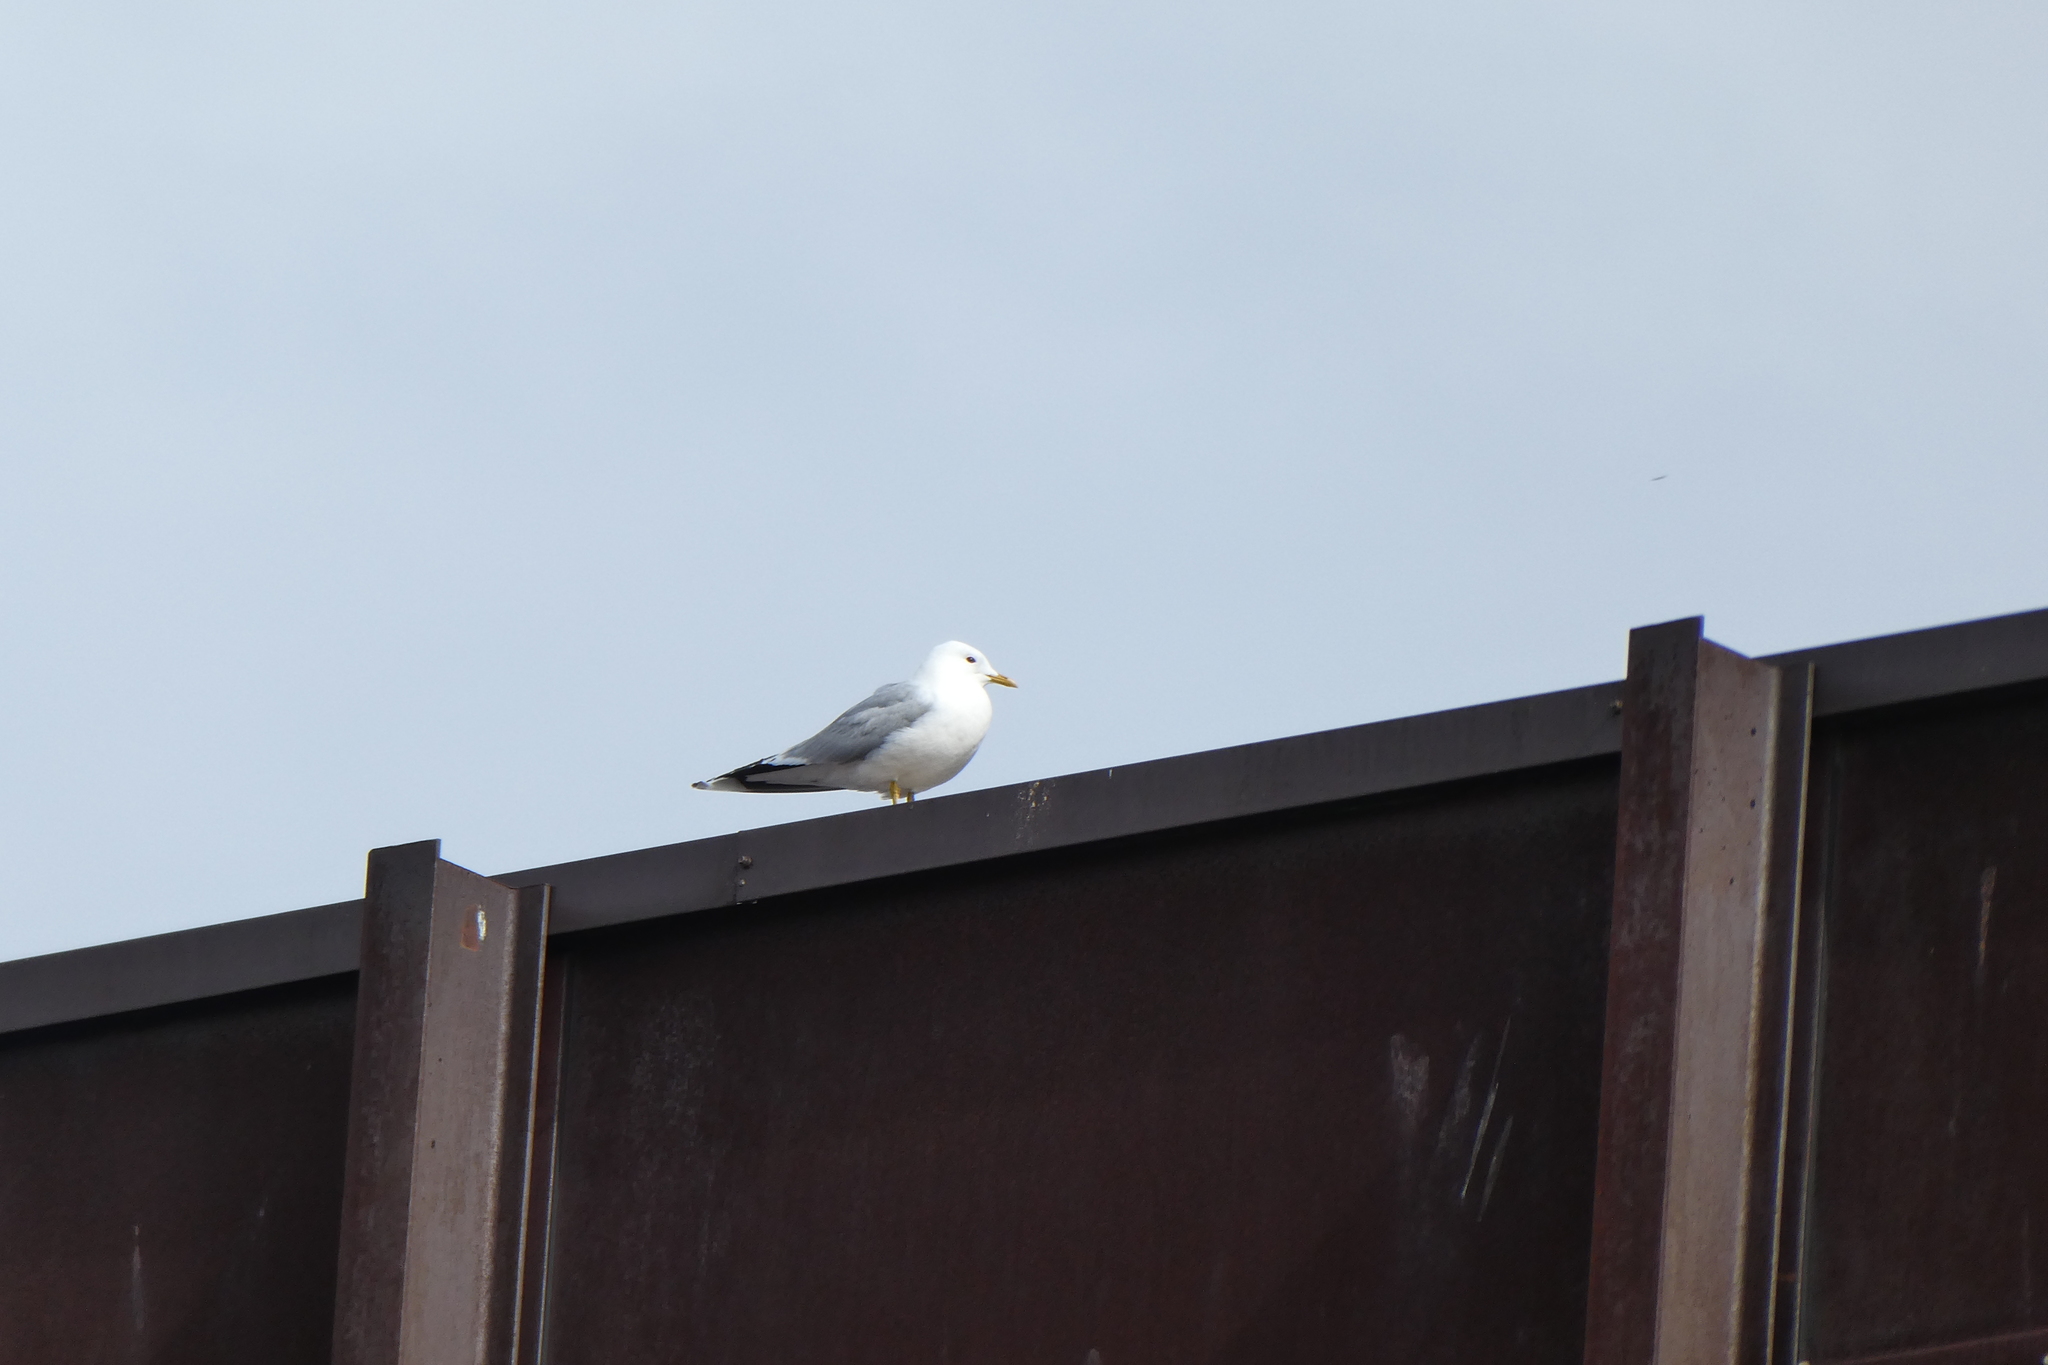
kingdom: Animalia
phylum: Chordata
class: Aves
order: Charadriiformes
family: Laridae
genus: Larus
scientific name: Larus canus
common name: Mew gull
